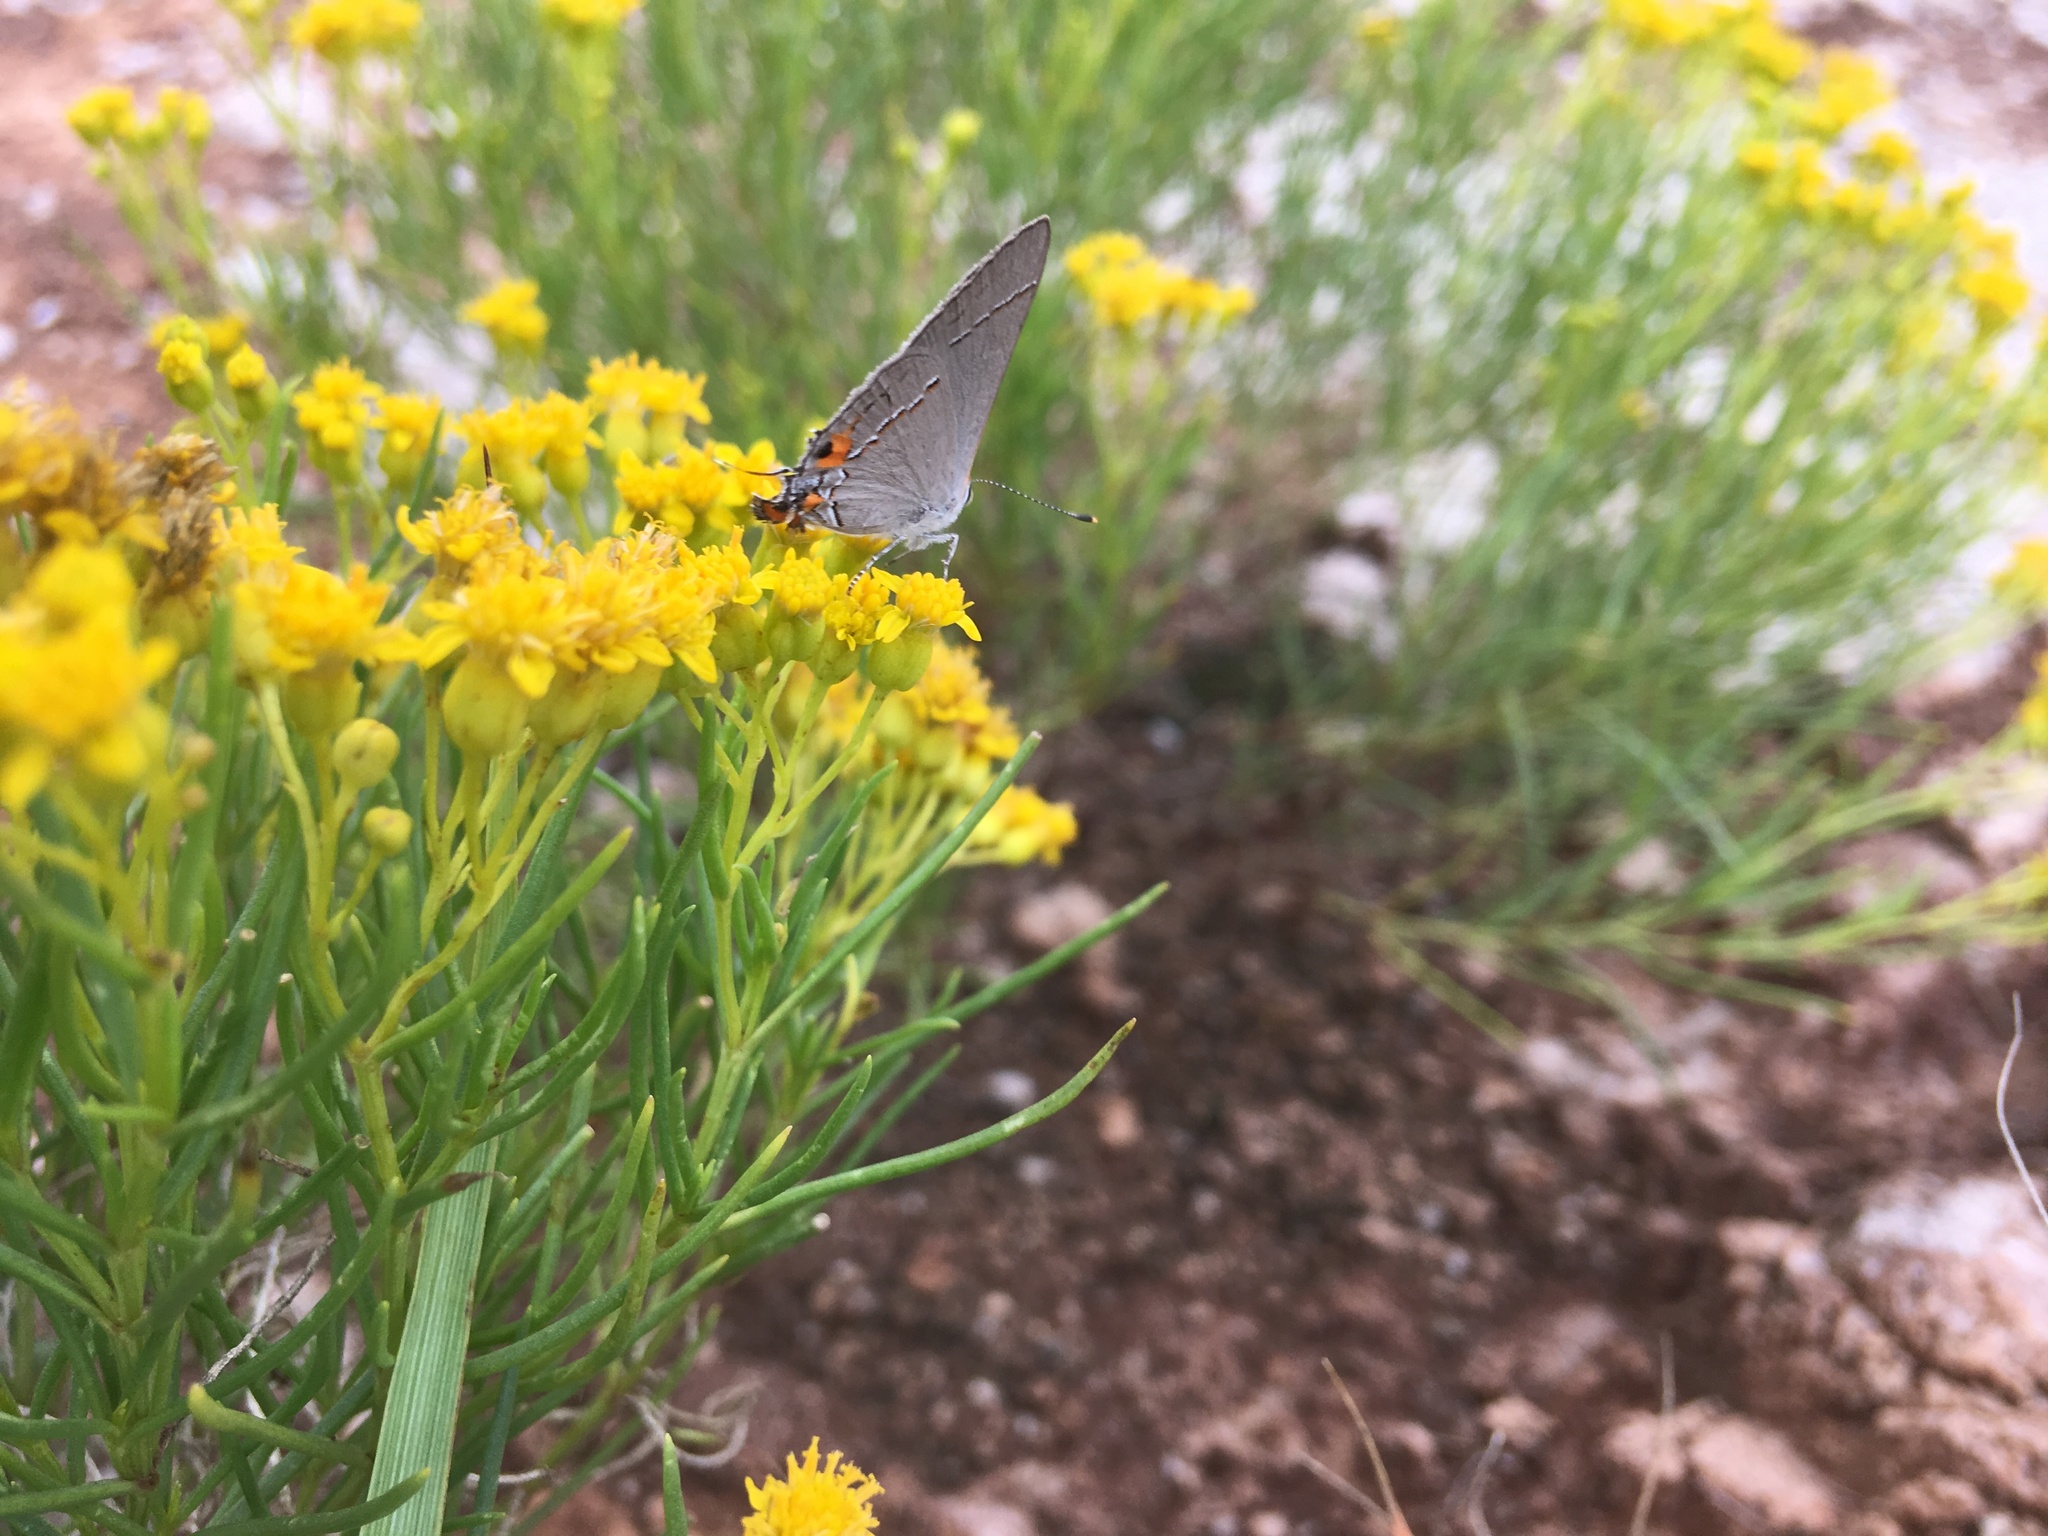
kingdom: Animalia
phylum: Arthropoda
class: Insecta
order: Lepidoptera
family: Lycaenidae
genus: Strymon
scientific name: Strymon melinus
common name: Gray hairstreak
